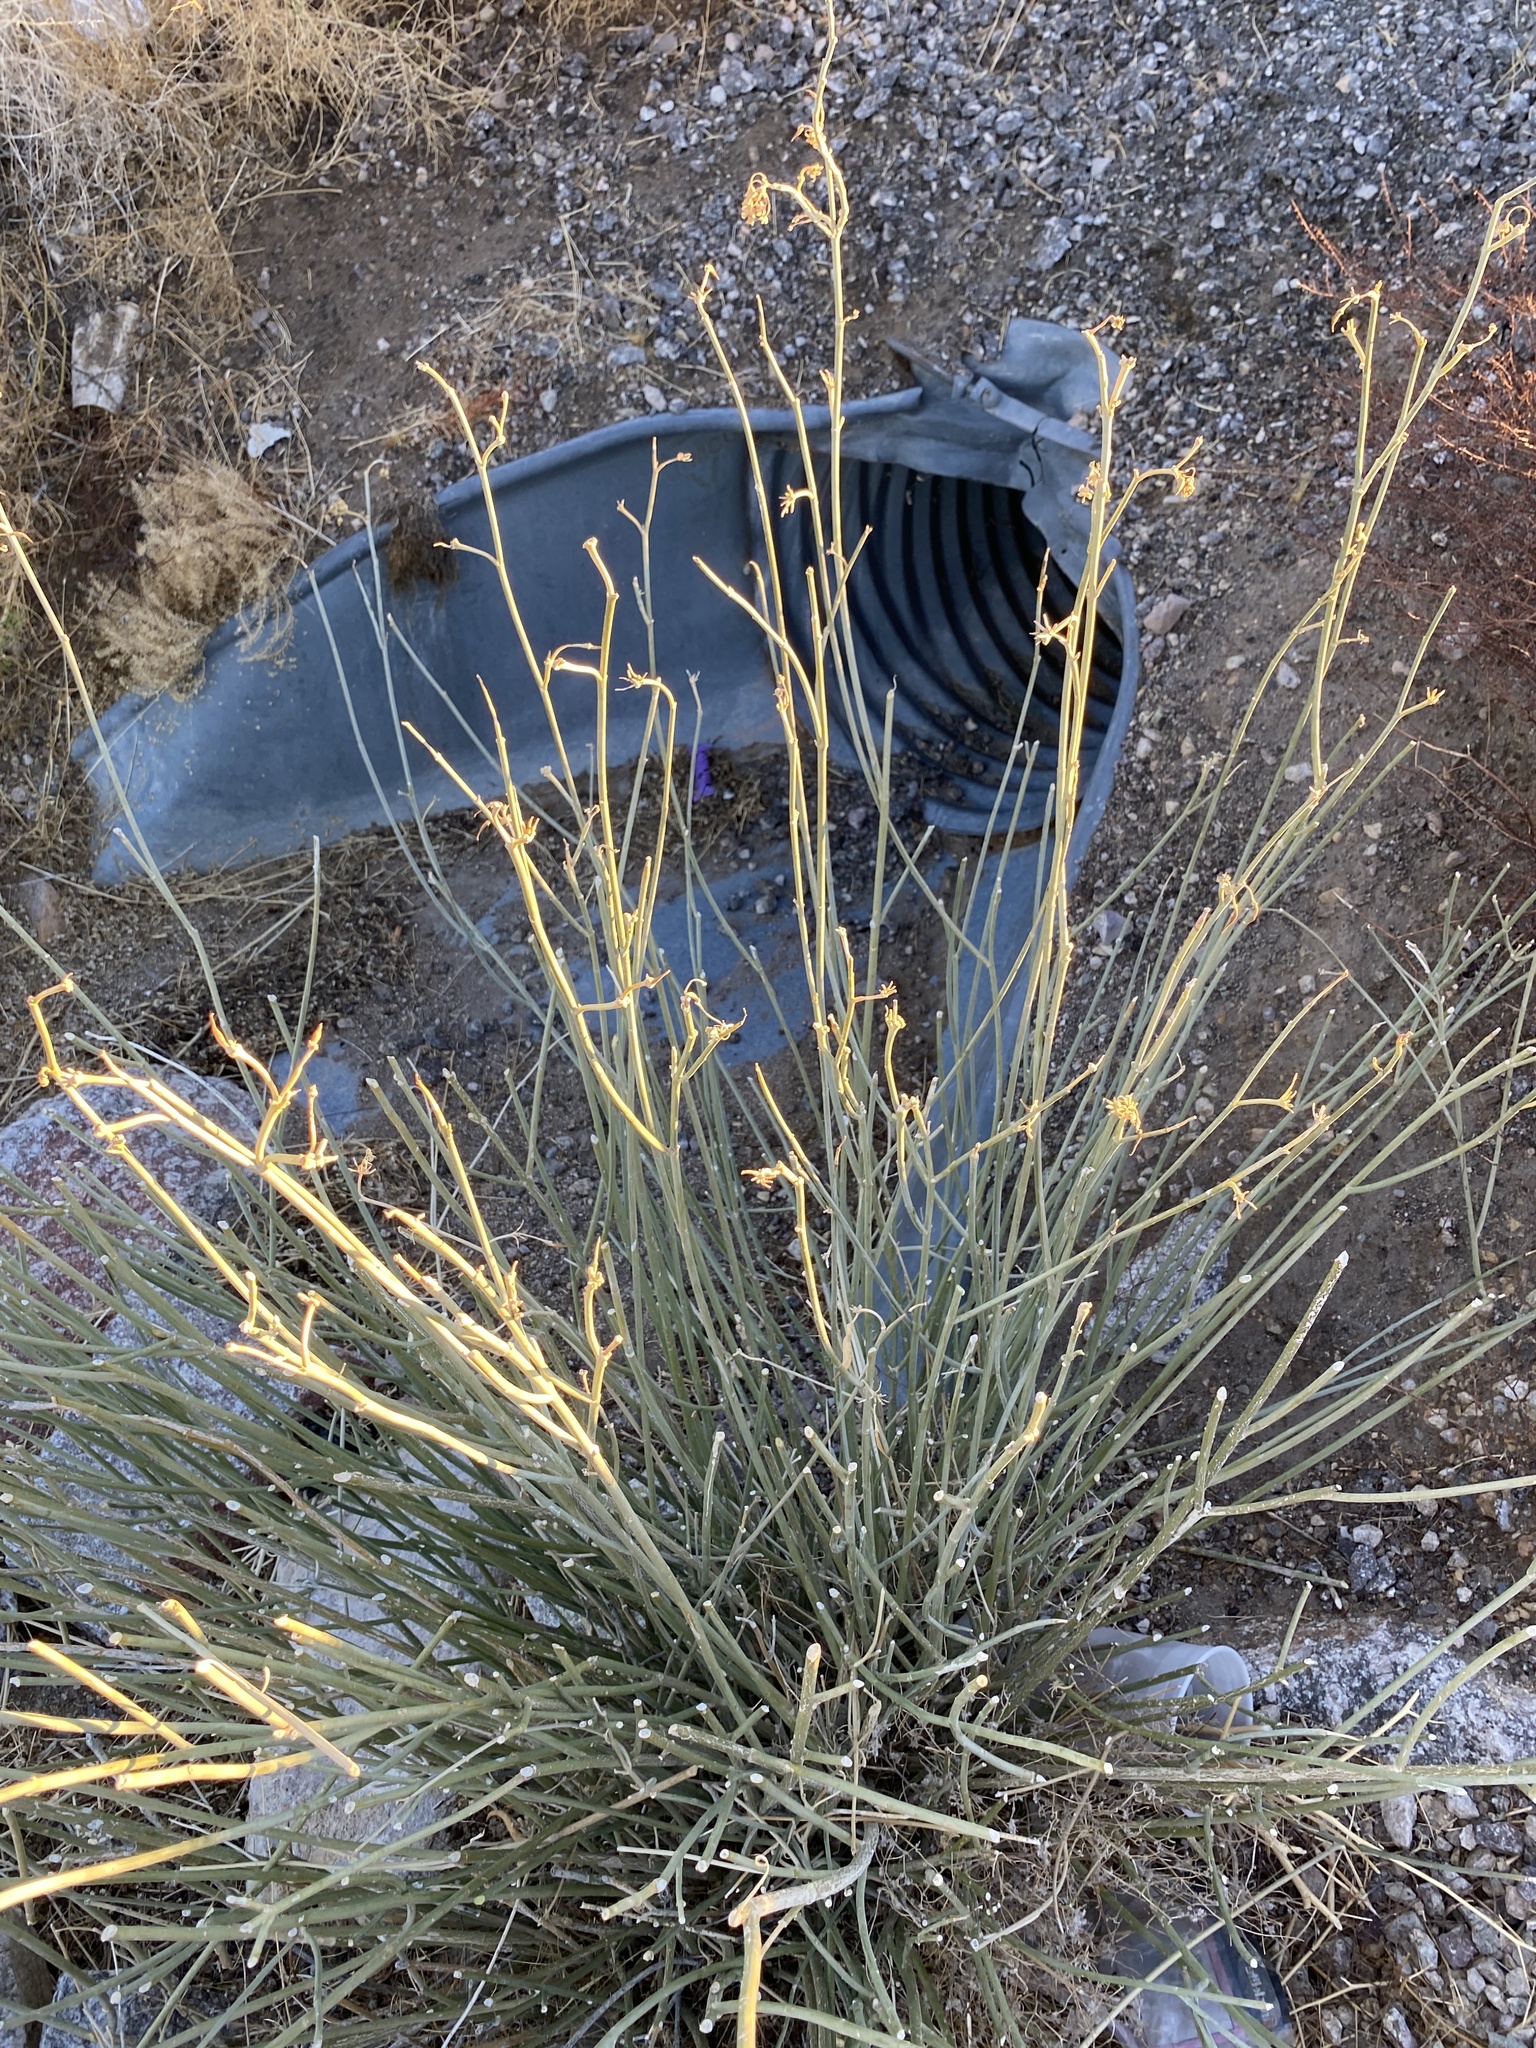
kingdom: Plantae
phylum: Tracheophyta
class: Magnoliopsida
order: Gentianales
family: Apocynaceae
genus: Asclepias
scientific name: Asclepias subulata
